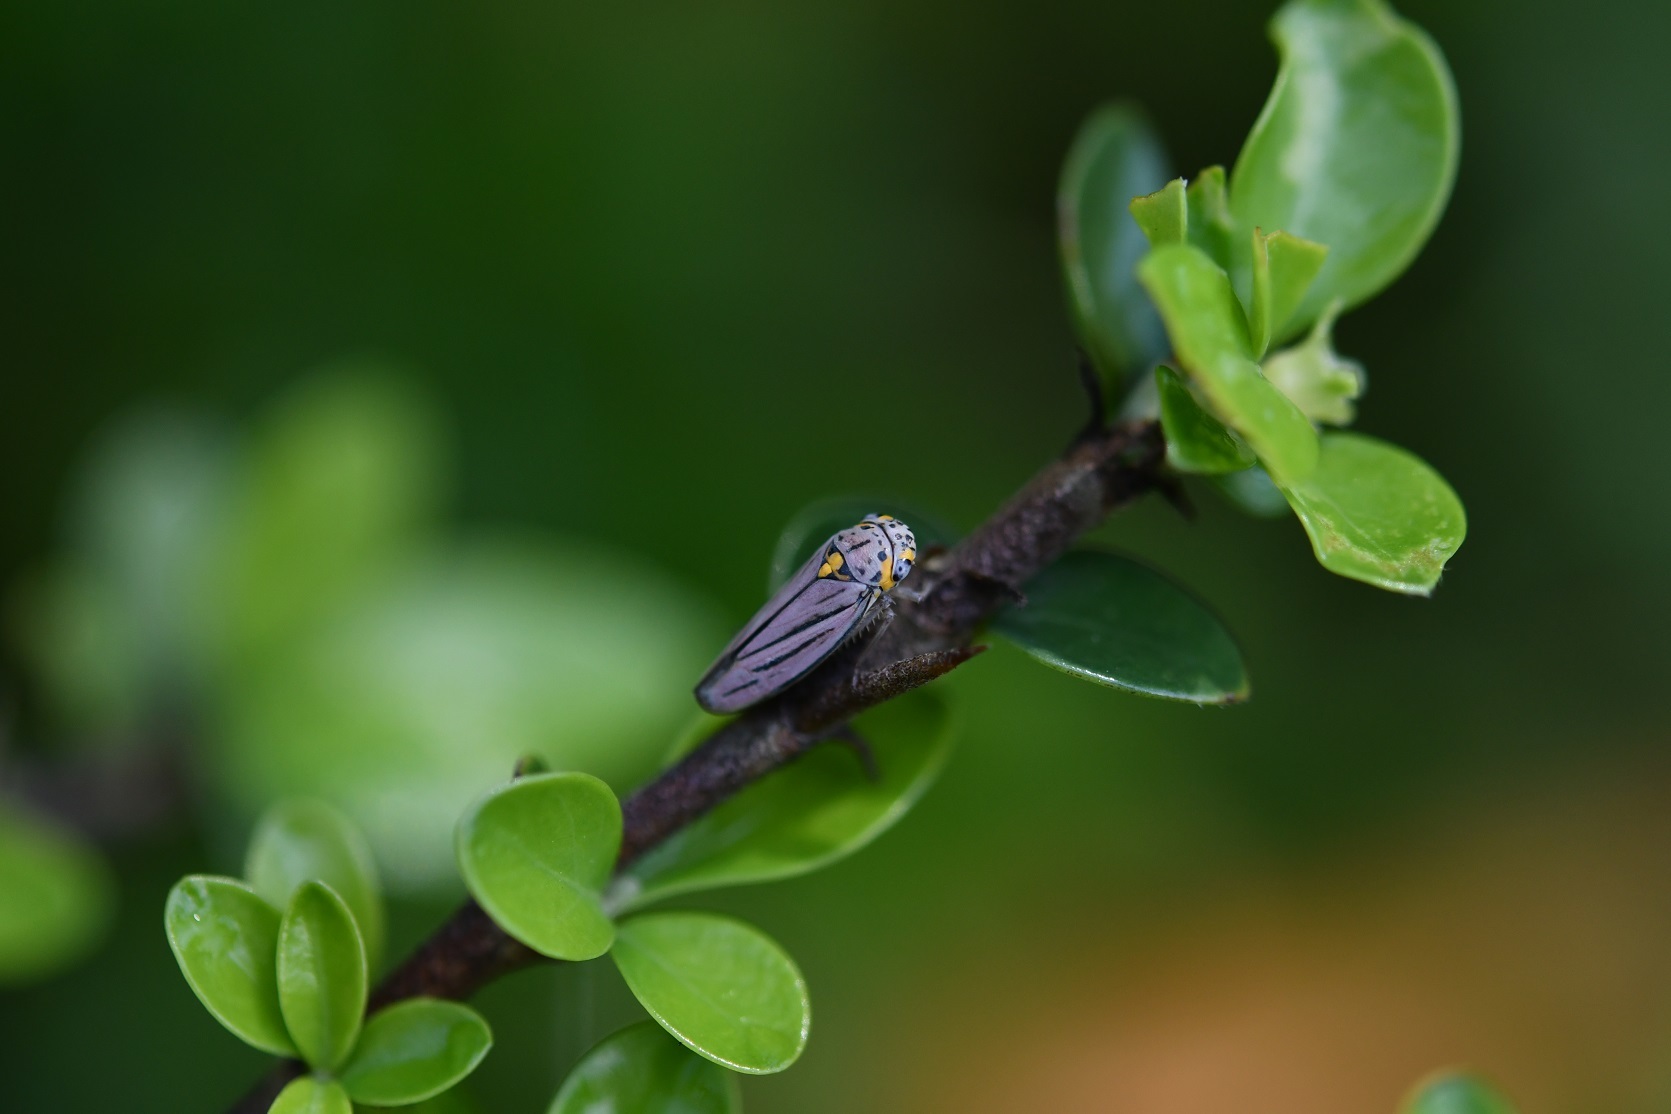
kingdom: Animalia
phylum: Arthropoda
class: Insecta
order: Hemiptera
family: Cicadellidae
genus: Graphocephala
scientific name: Graphocephala nigrifascia
